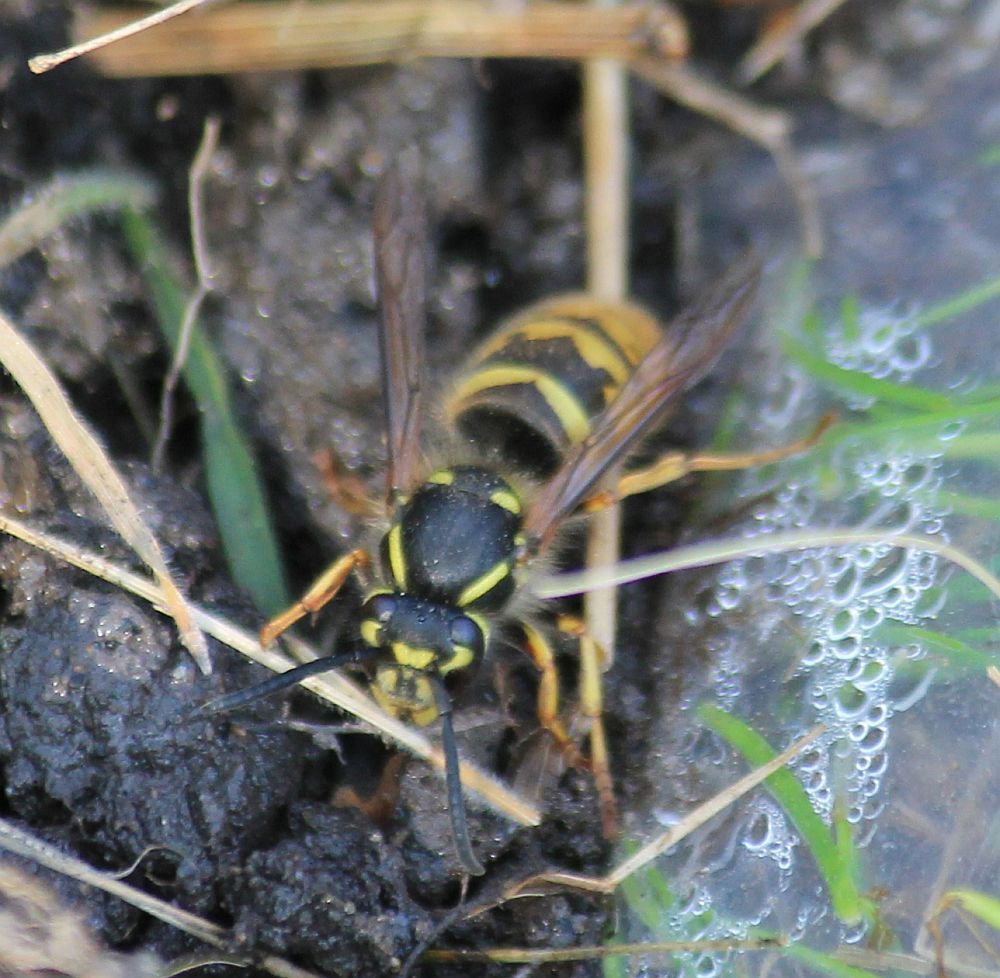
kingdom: Animalia
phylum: Arthropoda
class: Insecta
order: Hymenoptera
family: Vespidae
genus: Vespula
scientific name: Vespula vulgaris
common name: Common wasp
